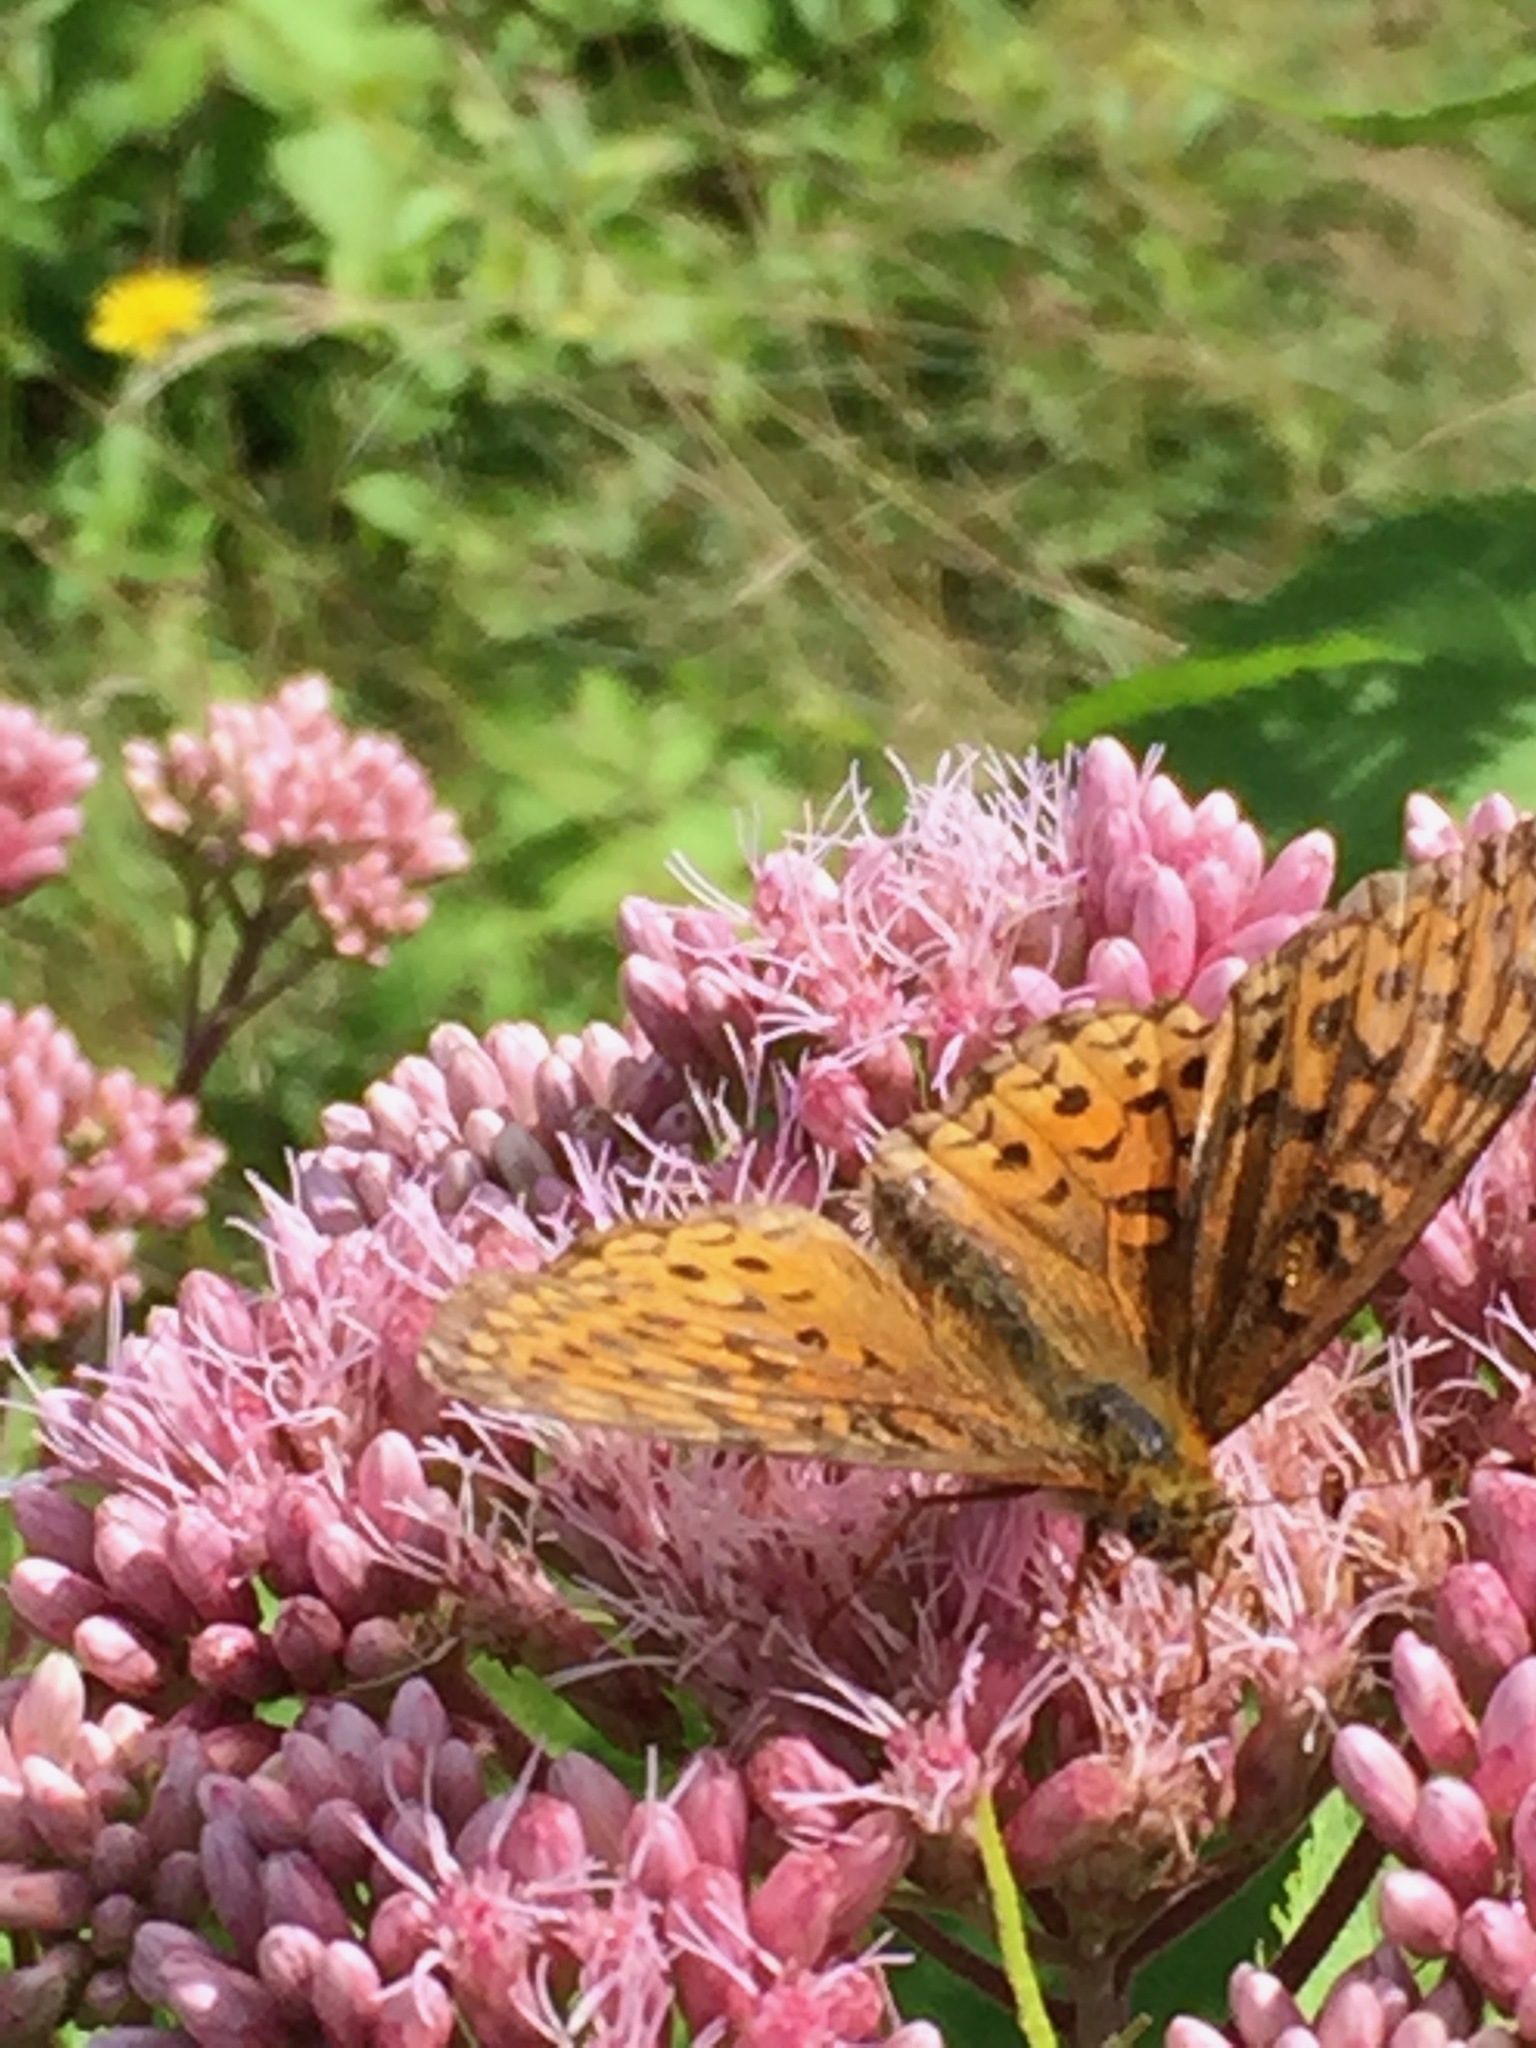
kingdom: Animalia
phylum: Arthropoda
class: Insecta
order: Lepidoptera
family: Nymphalidae
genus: Speyeria
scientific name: Speyeria atlantis
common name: Atlantis fritillary
